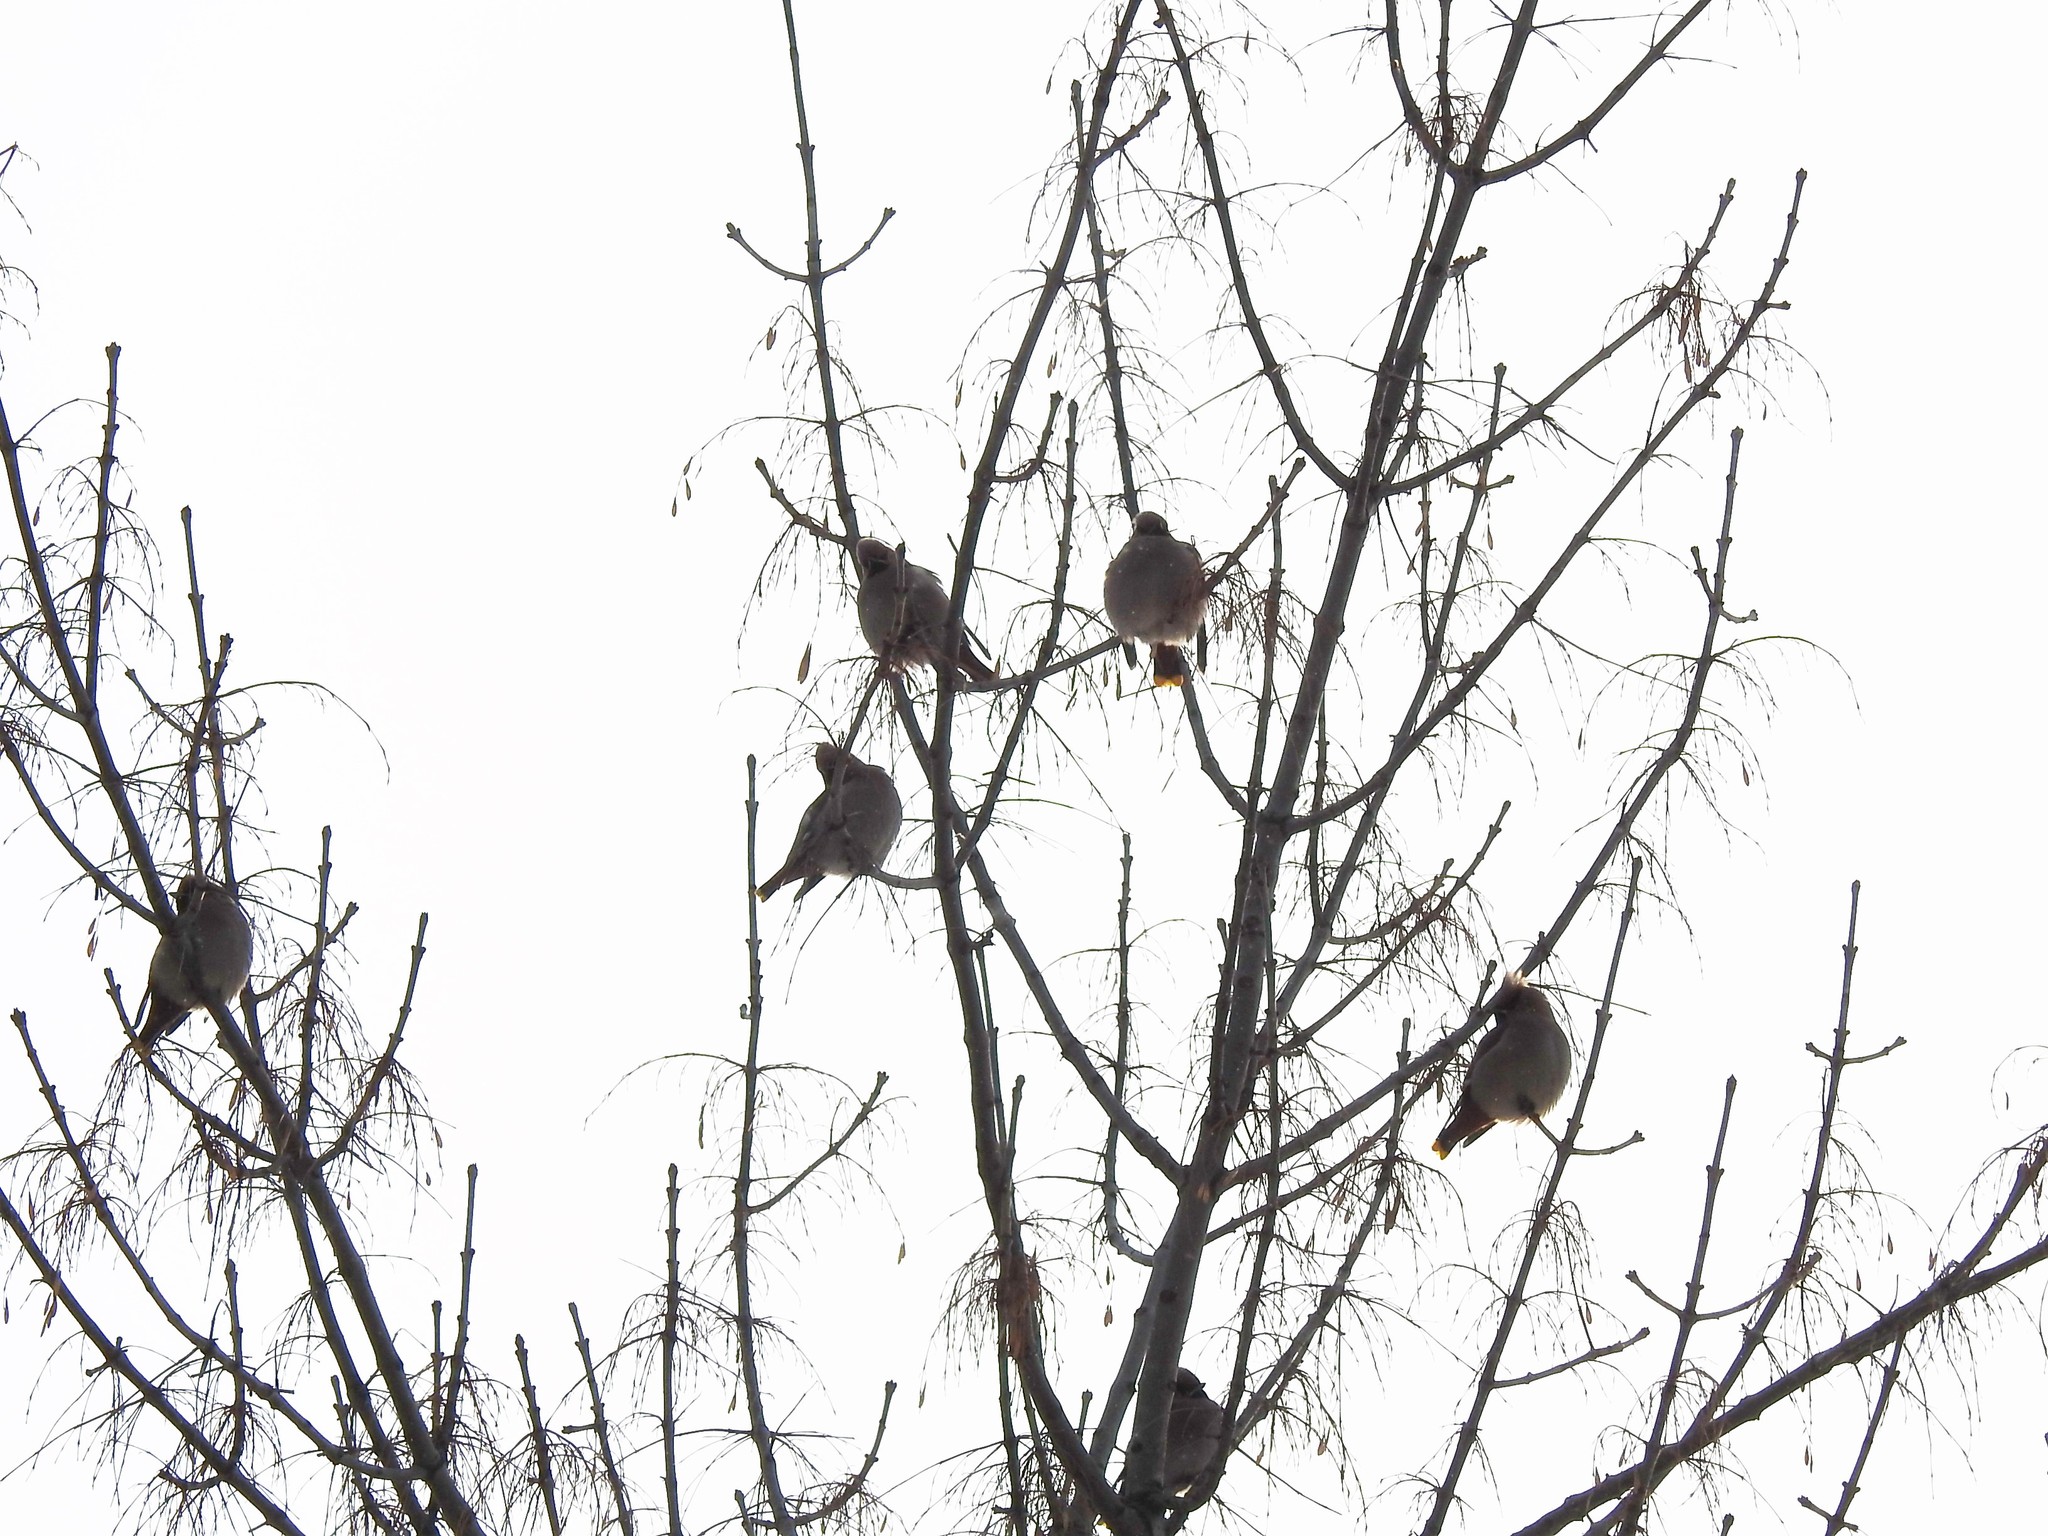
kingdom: Animalia
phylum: Chordata
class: Aves
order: Passeriformes
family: Bombycillidae
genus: Bombycilla
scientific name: Bombycilla garrulus
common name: Bohemian waxwing
